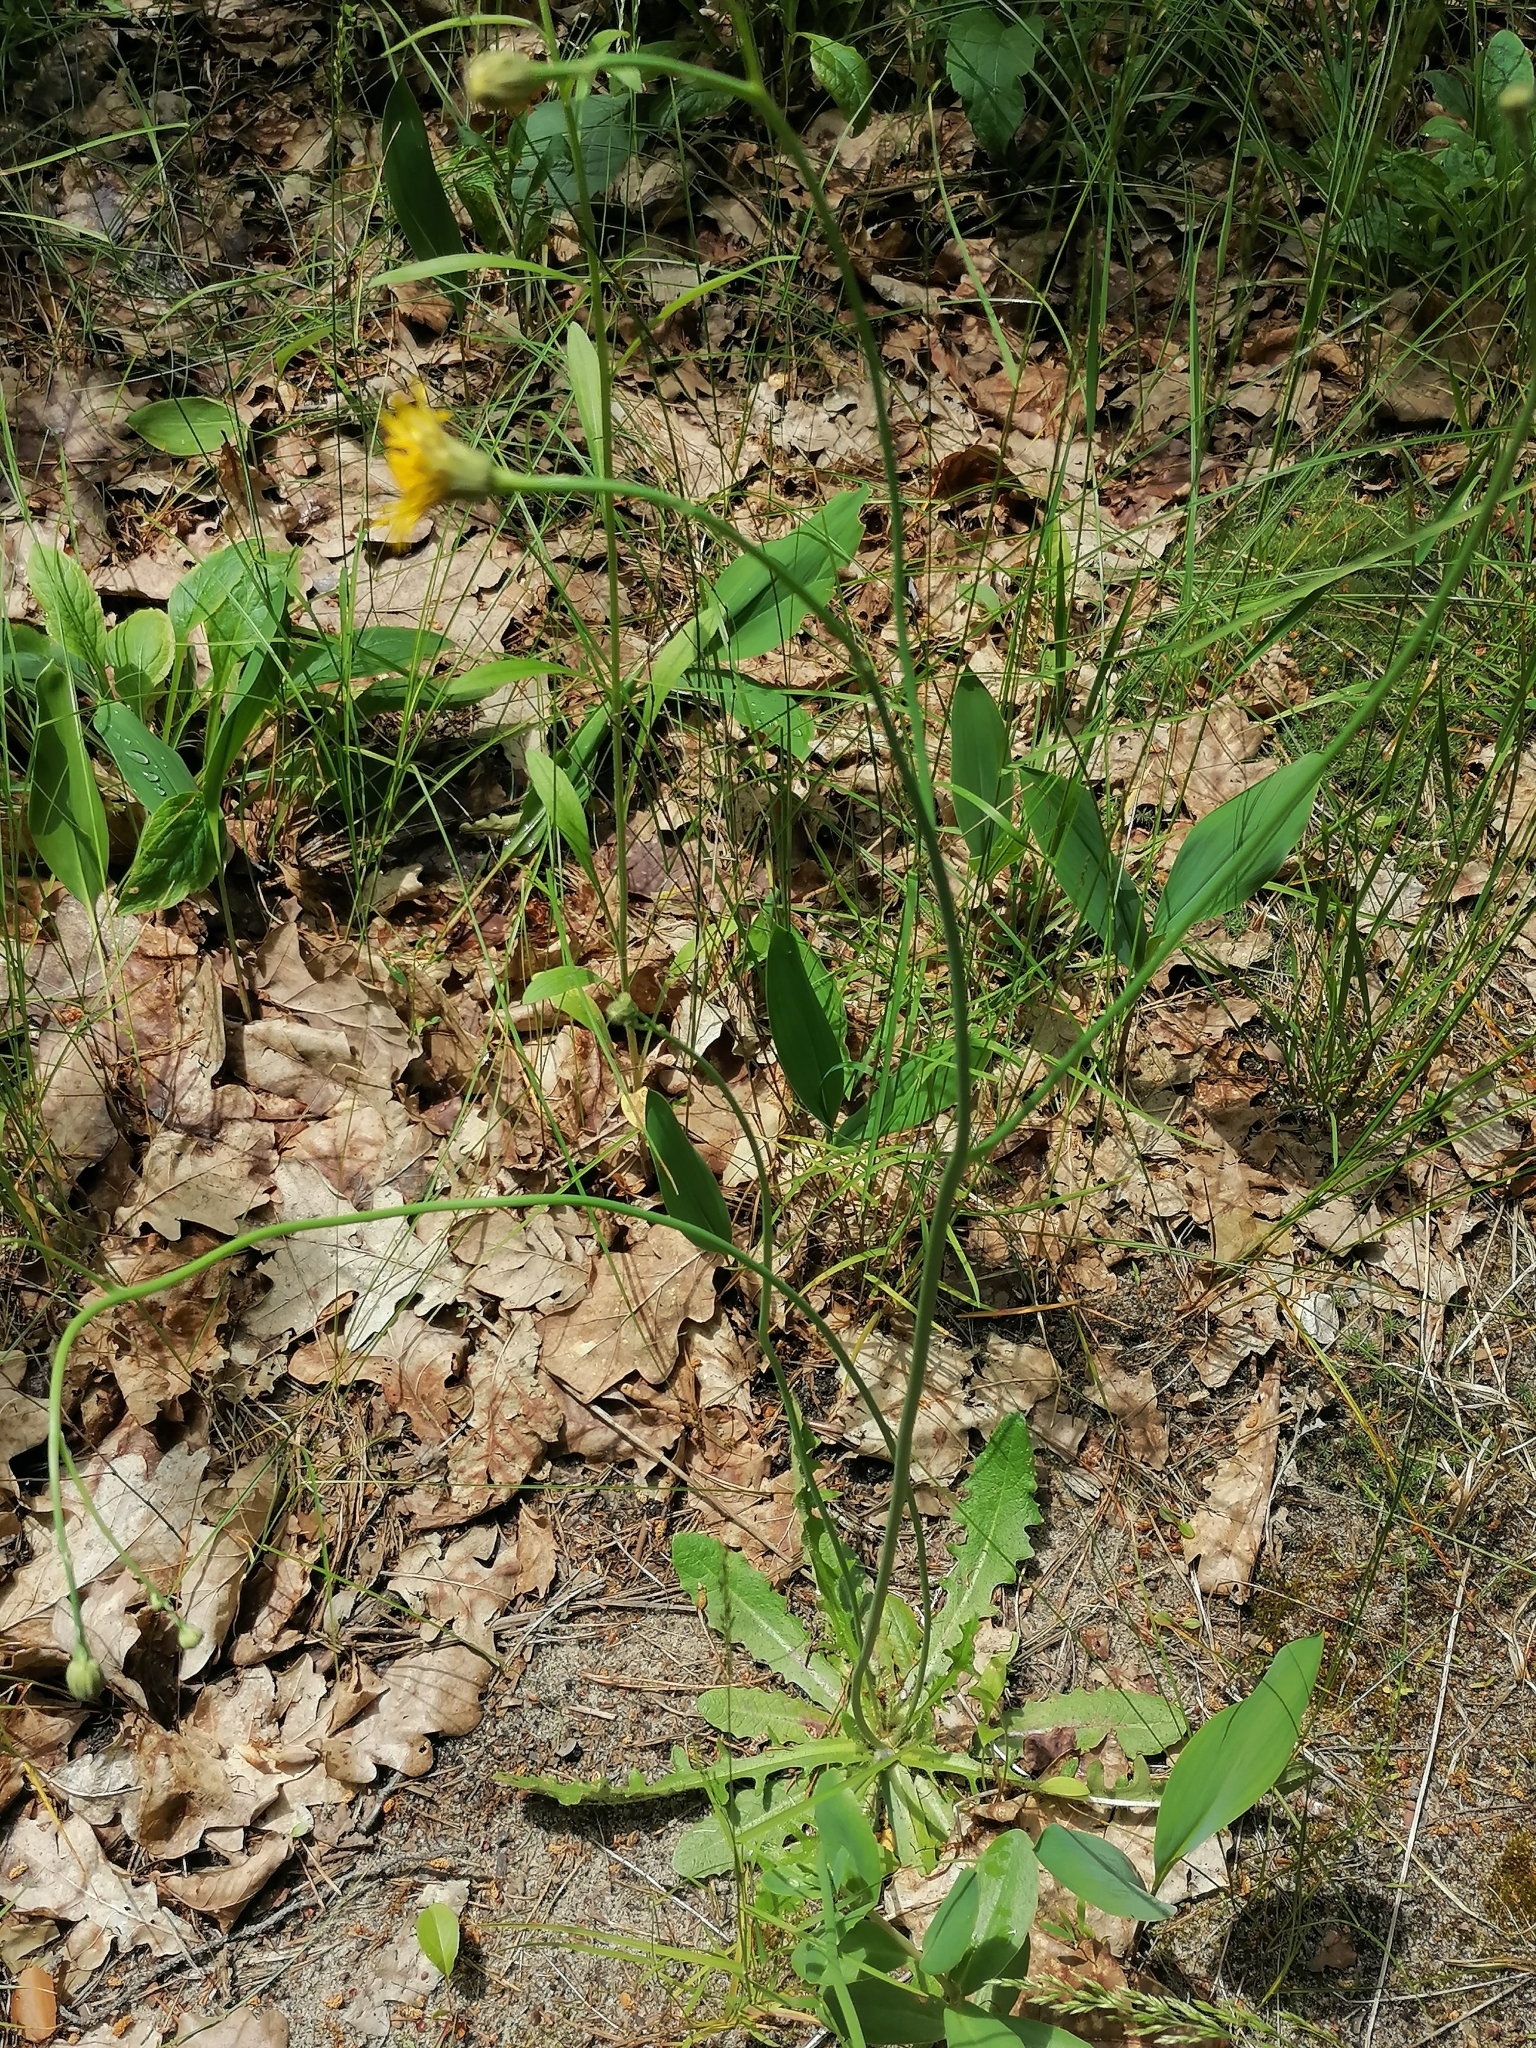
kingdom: Plantae
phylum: Tracheophyta
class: Magnoliopsida
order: Asterales
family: Asteraceae
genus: Hypochaeris
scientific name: Hypochaeris radicata
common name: Flatweed
